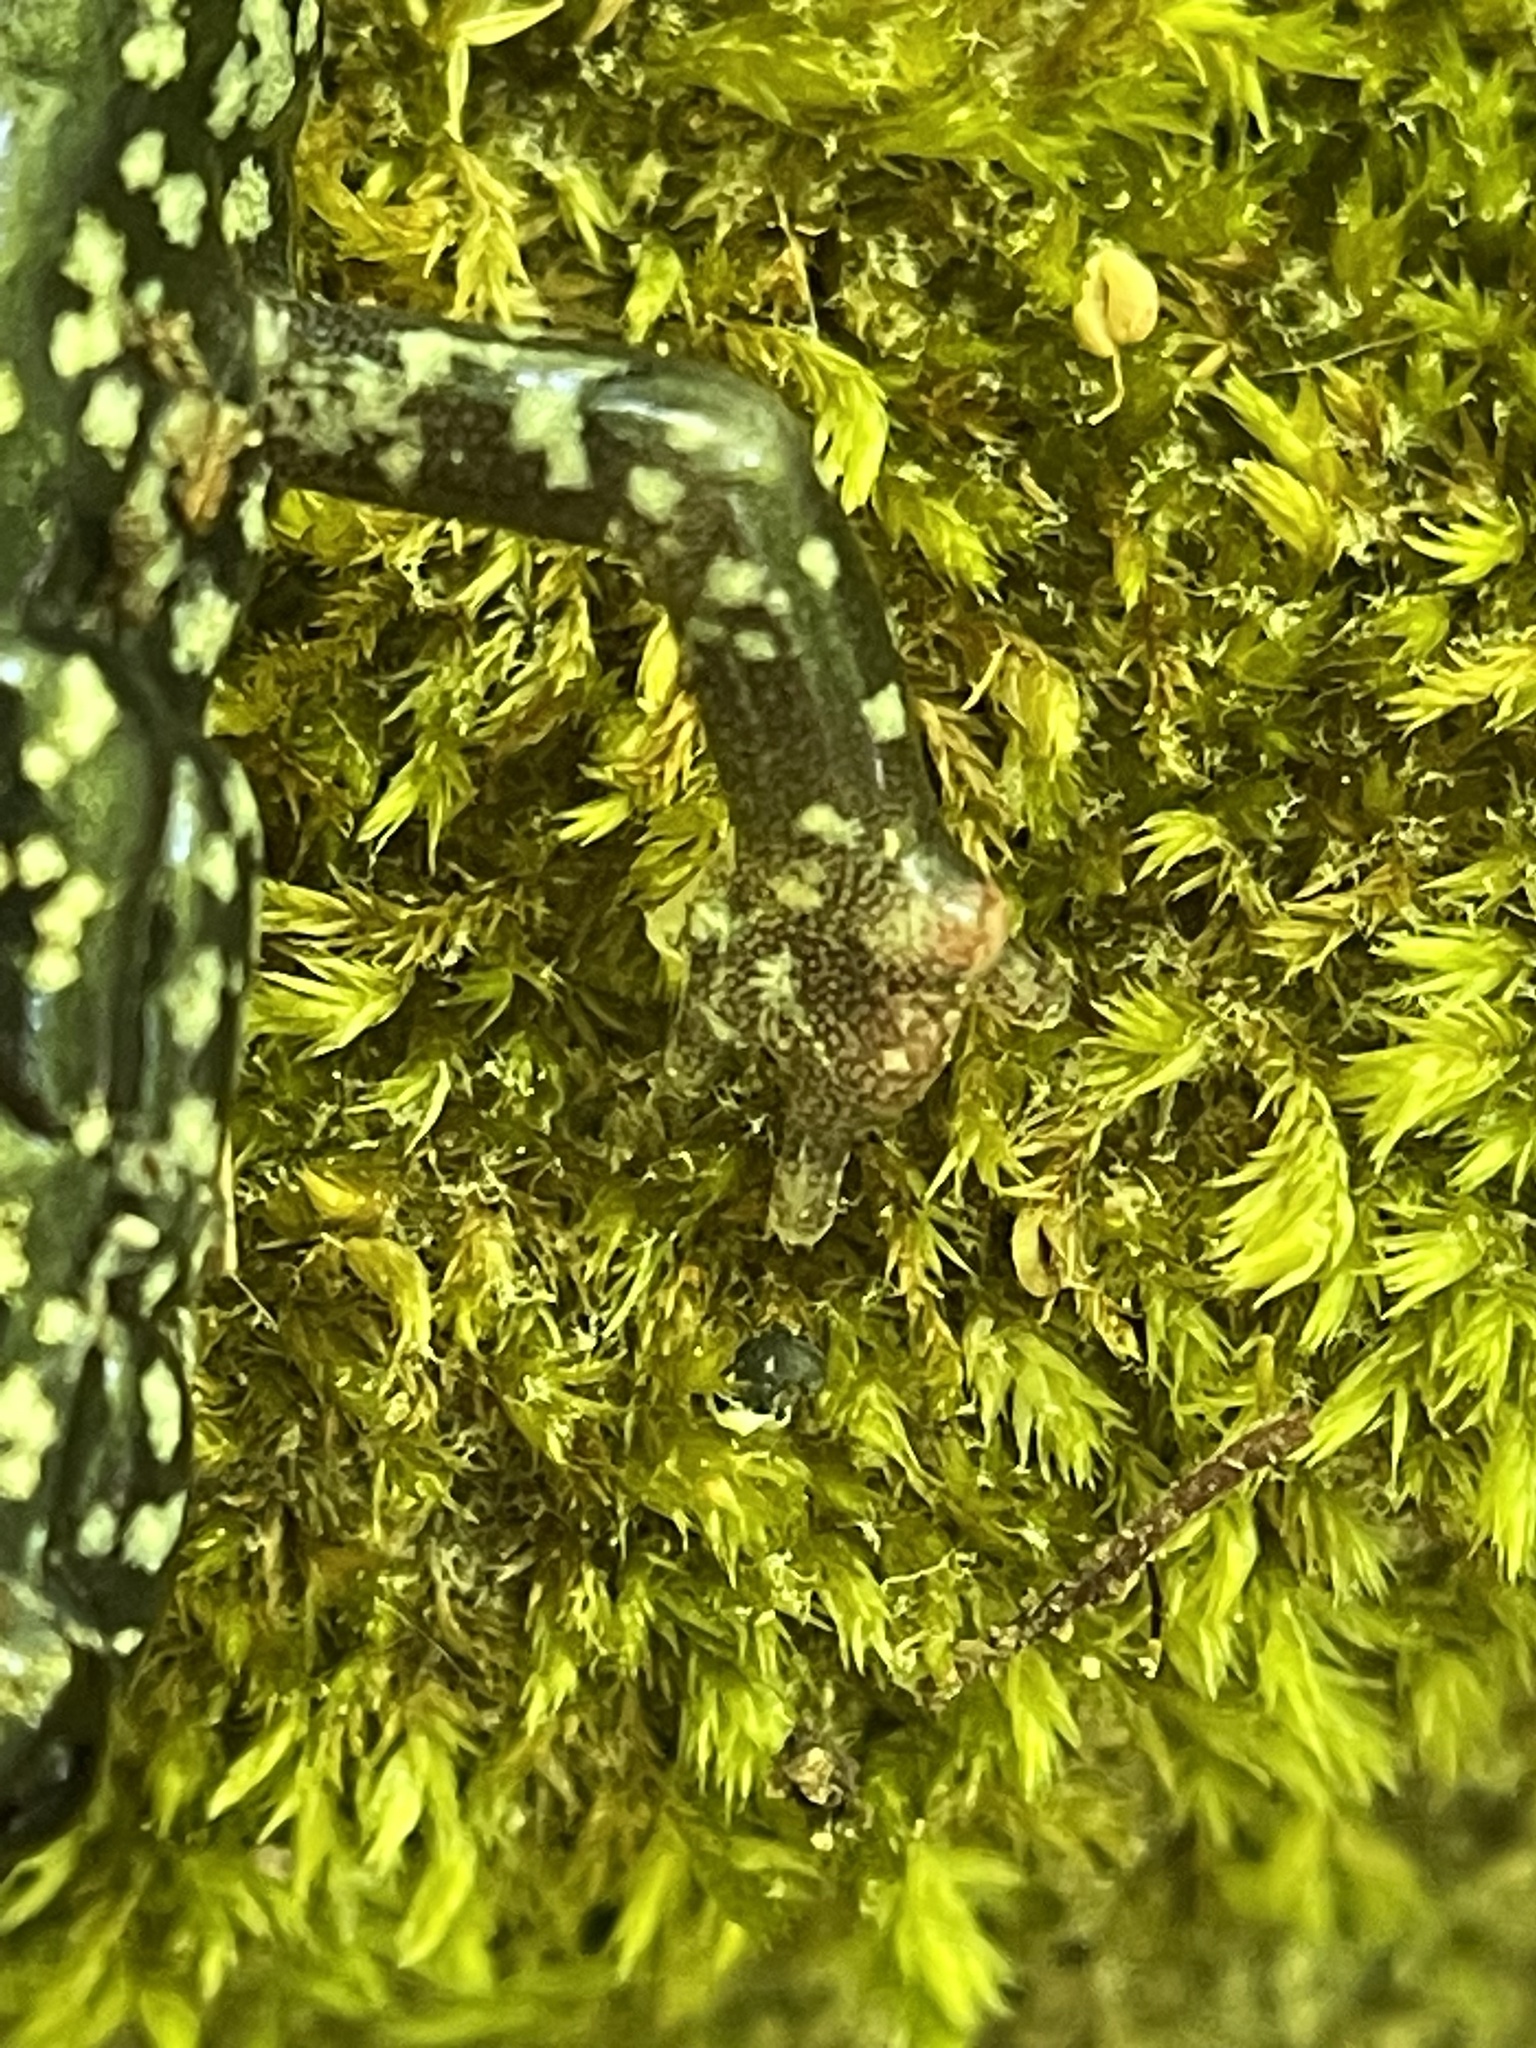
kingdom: Animalia
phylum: Chordata
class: Amphibia
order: Caudata
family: Plethodontidae
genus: Plethodon
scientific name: Plethodon glutinosus
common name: Northern slimy salamander
